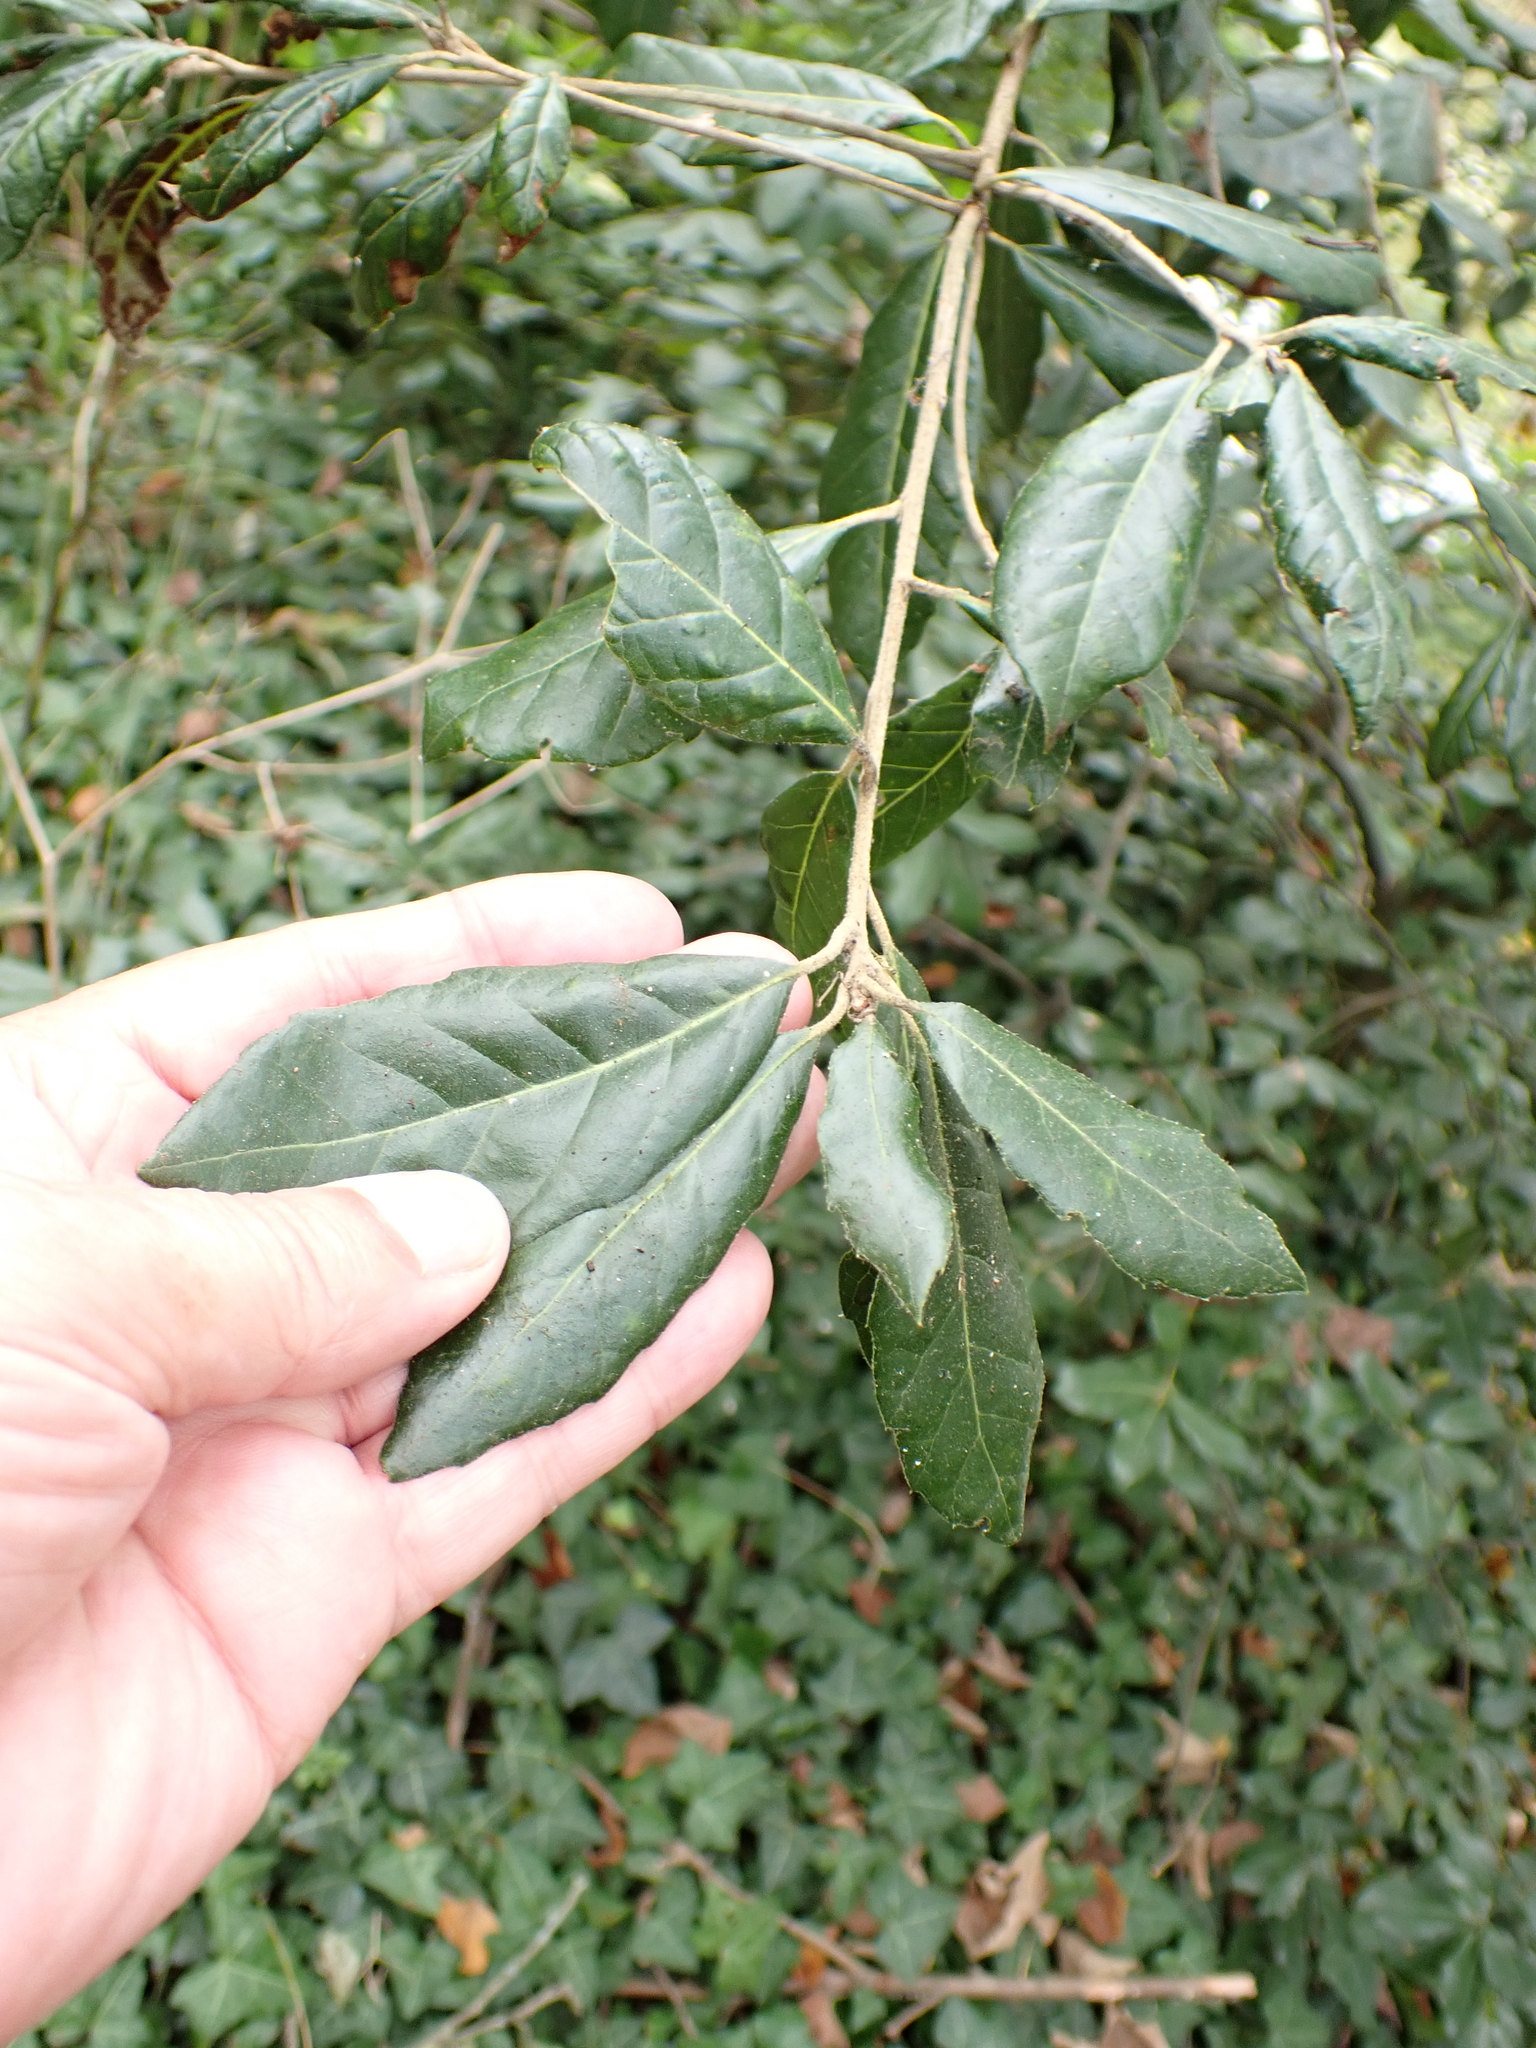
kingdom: Plantae
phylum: Tracheophyta
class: Magnoliopsida
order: Fagales
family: Fagaceae
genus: Quercus
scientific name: Quercus ilex
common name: Evergreen oak
